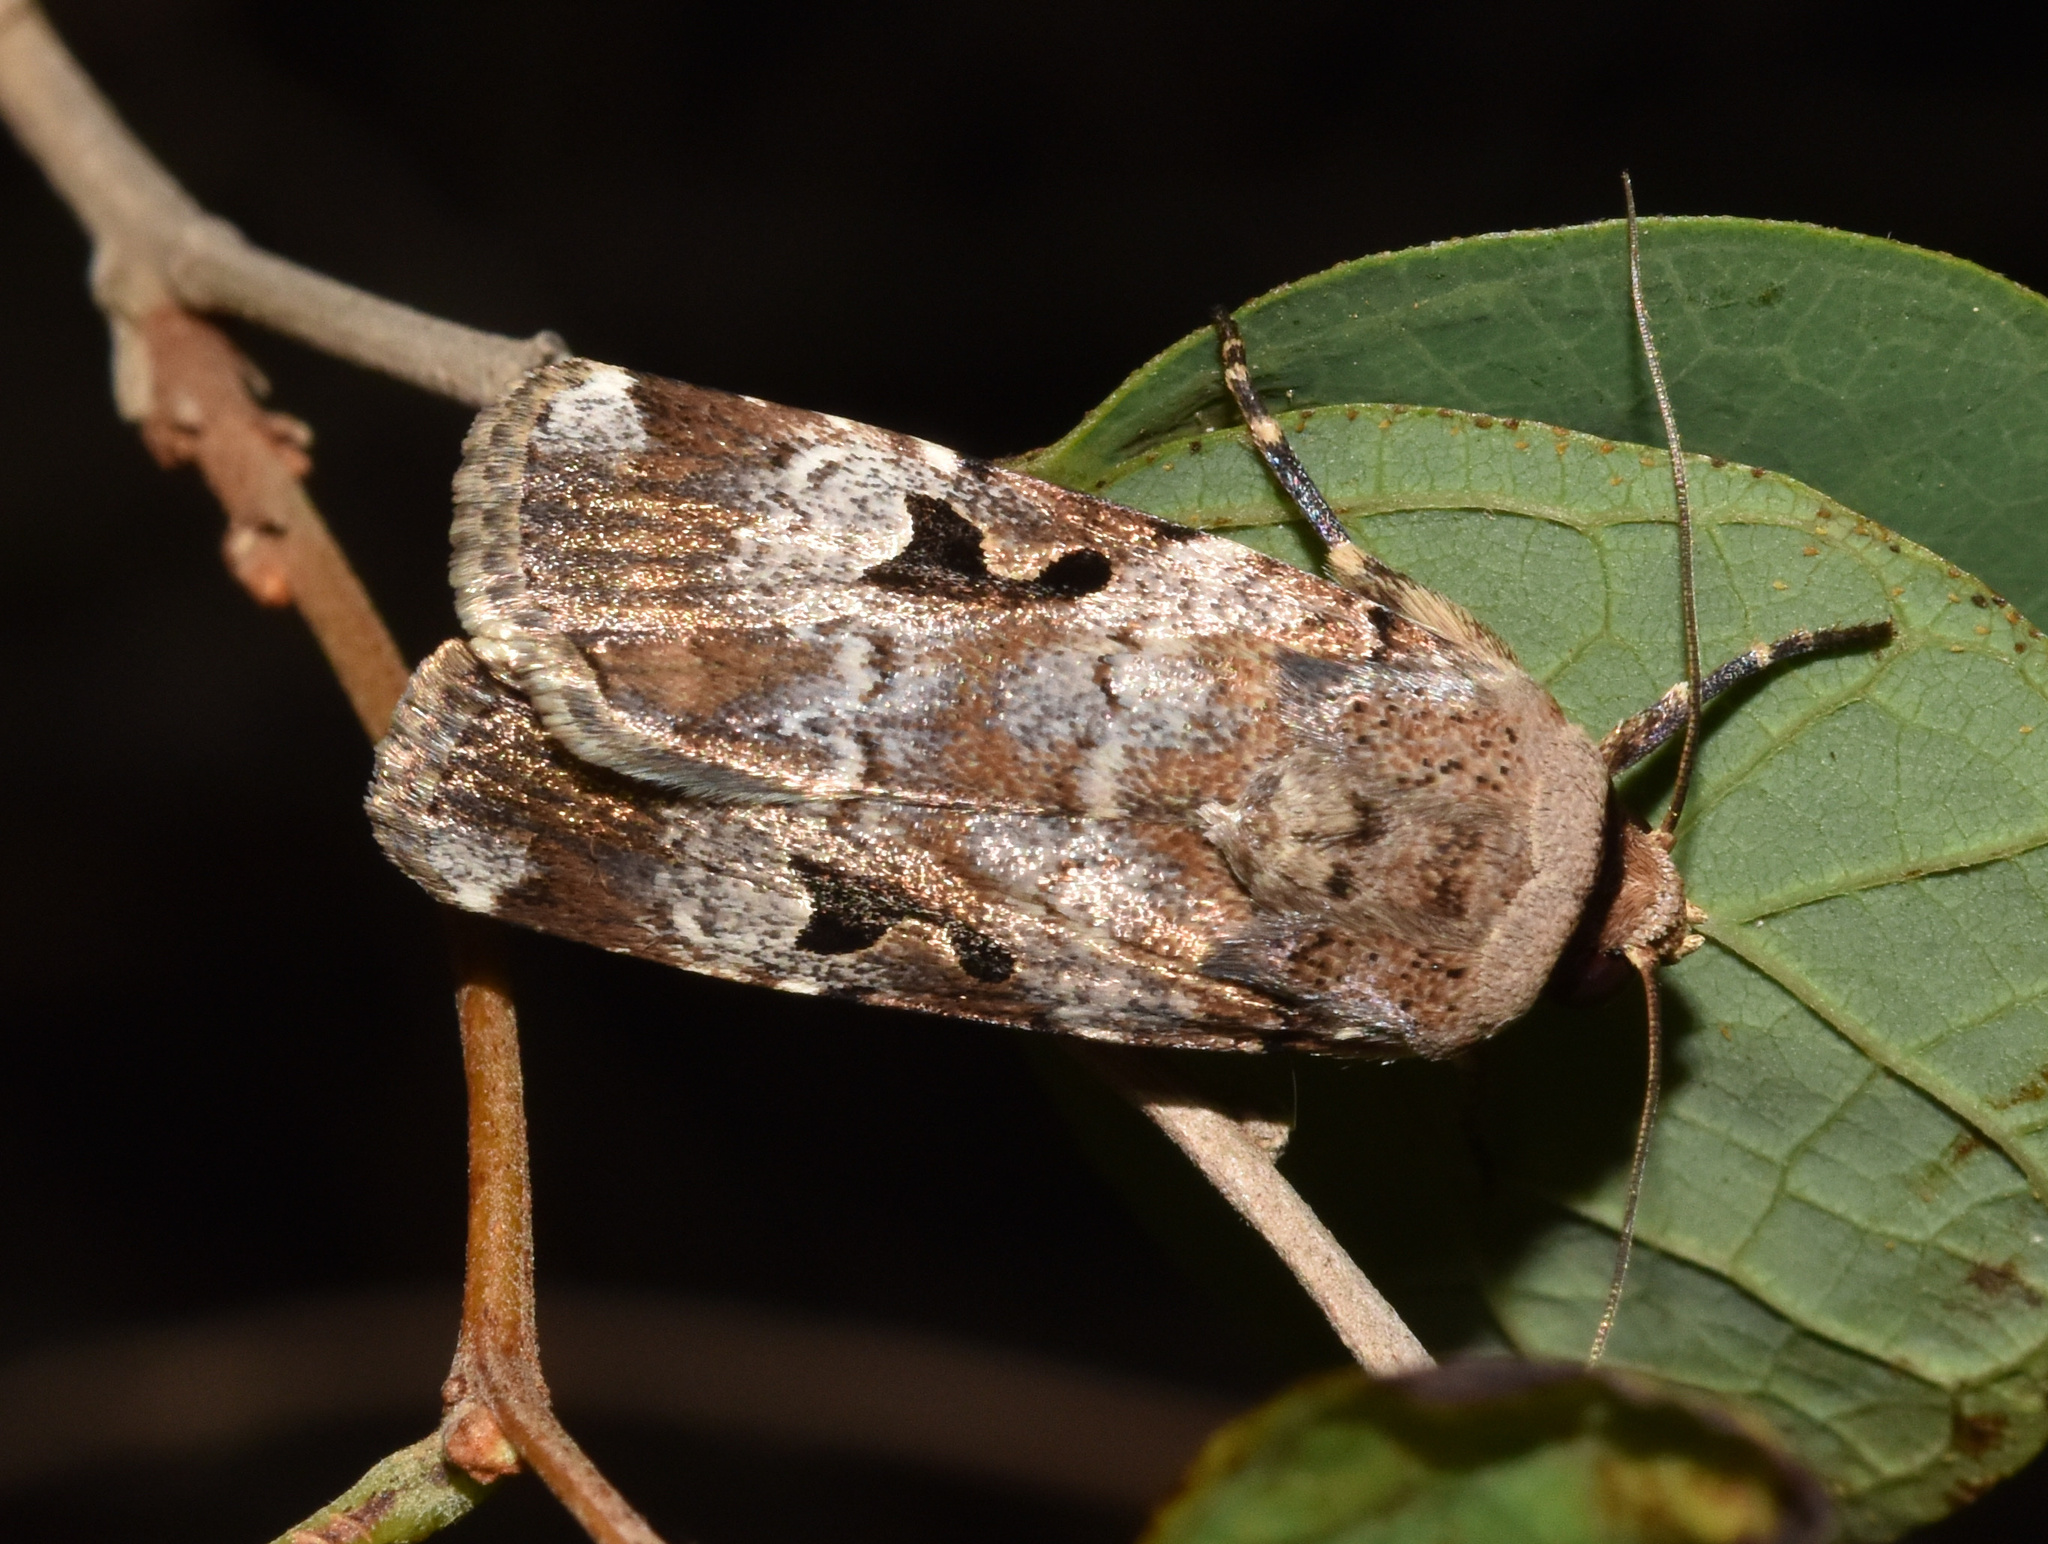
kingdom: Animalia
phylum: Arthropoda
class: Insecta
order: Lepidoptera
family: Noctuidae
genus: Spodoptera
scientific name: Spodoptera abyssinia
